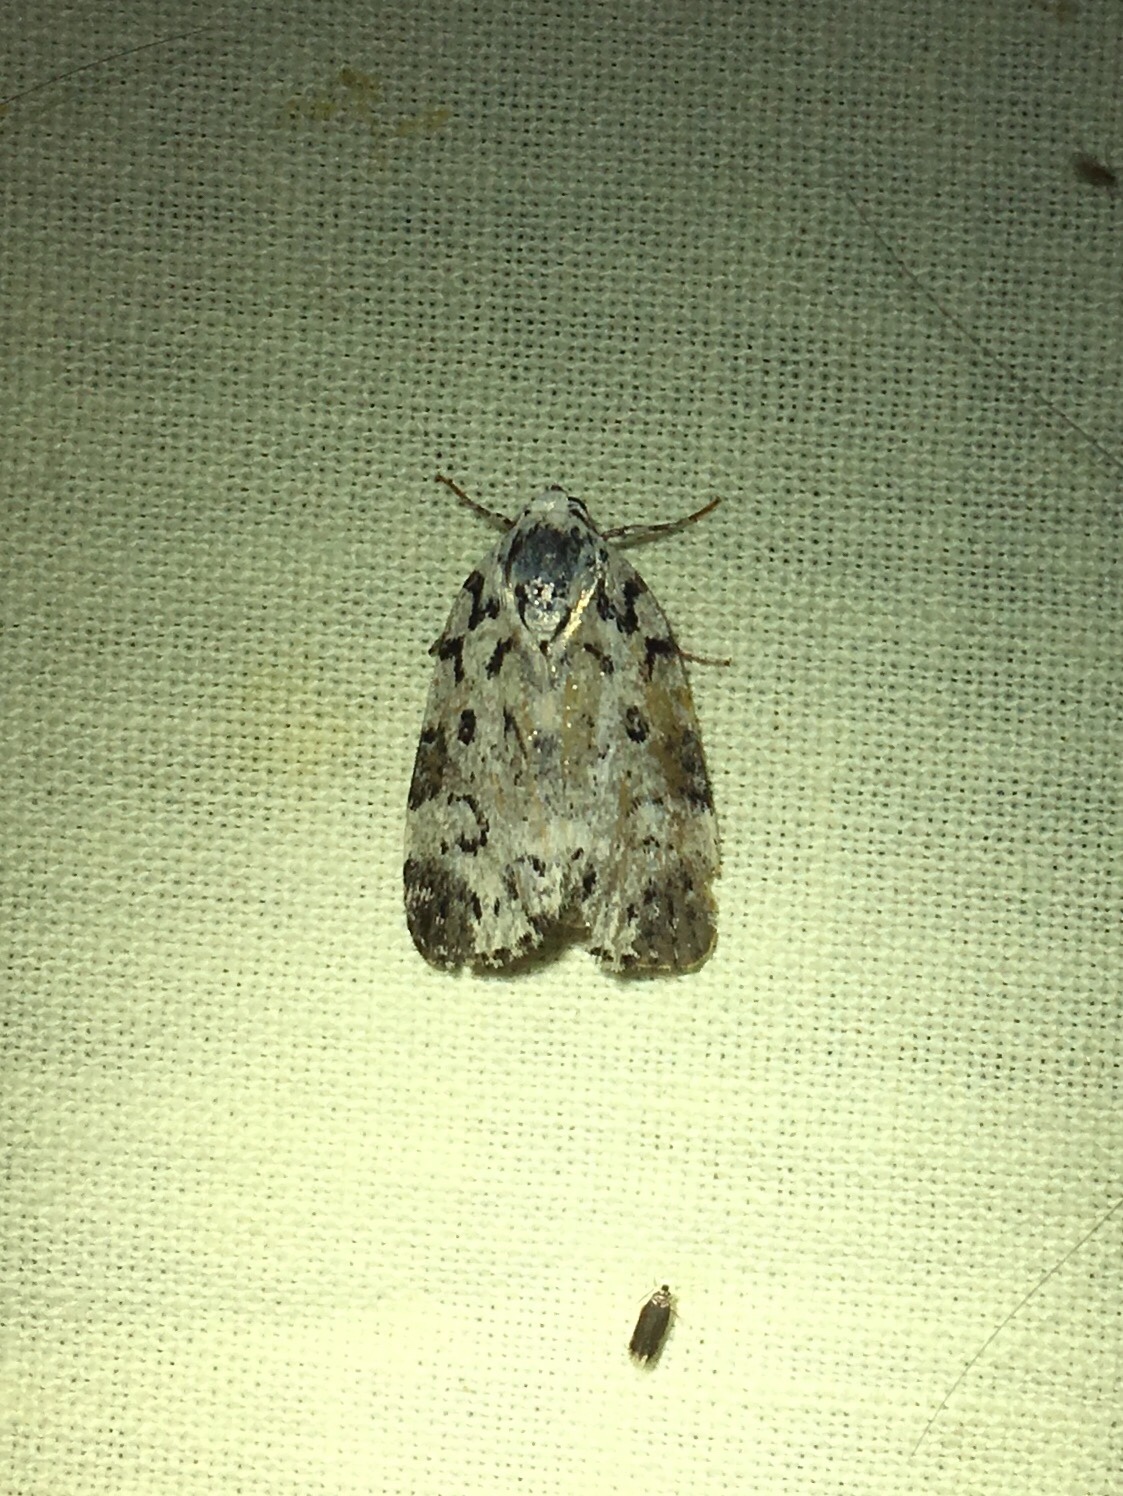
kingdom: Animalia
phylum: Arthropoda
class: Insecta
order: Lepidoptera
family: Noctuidae
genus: Polygrammate
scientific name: Polygrammate hebraeicum
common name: Hebrew moth
